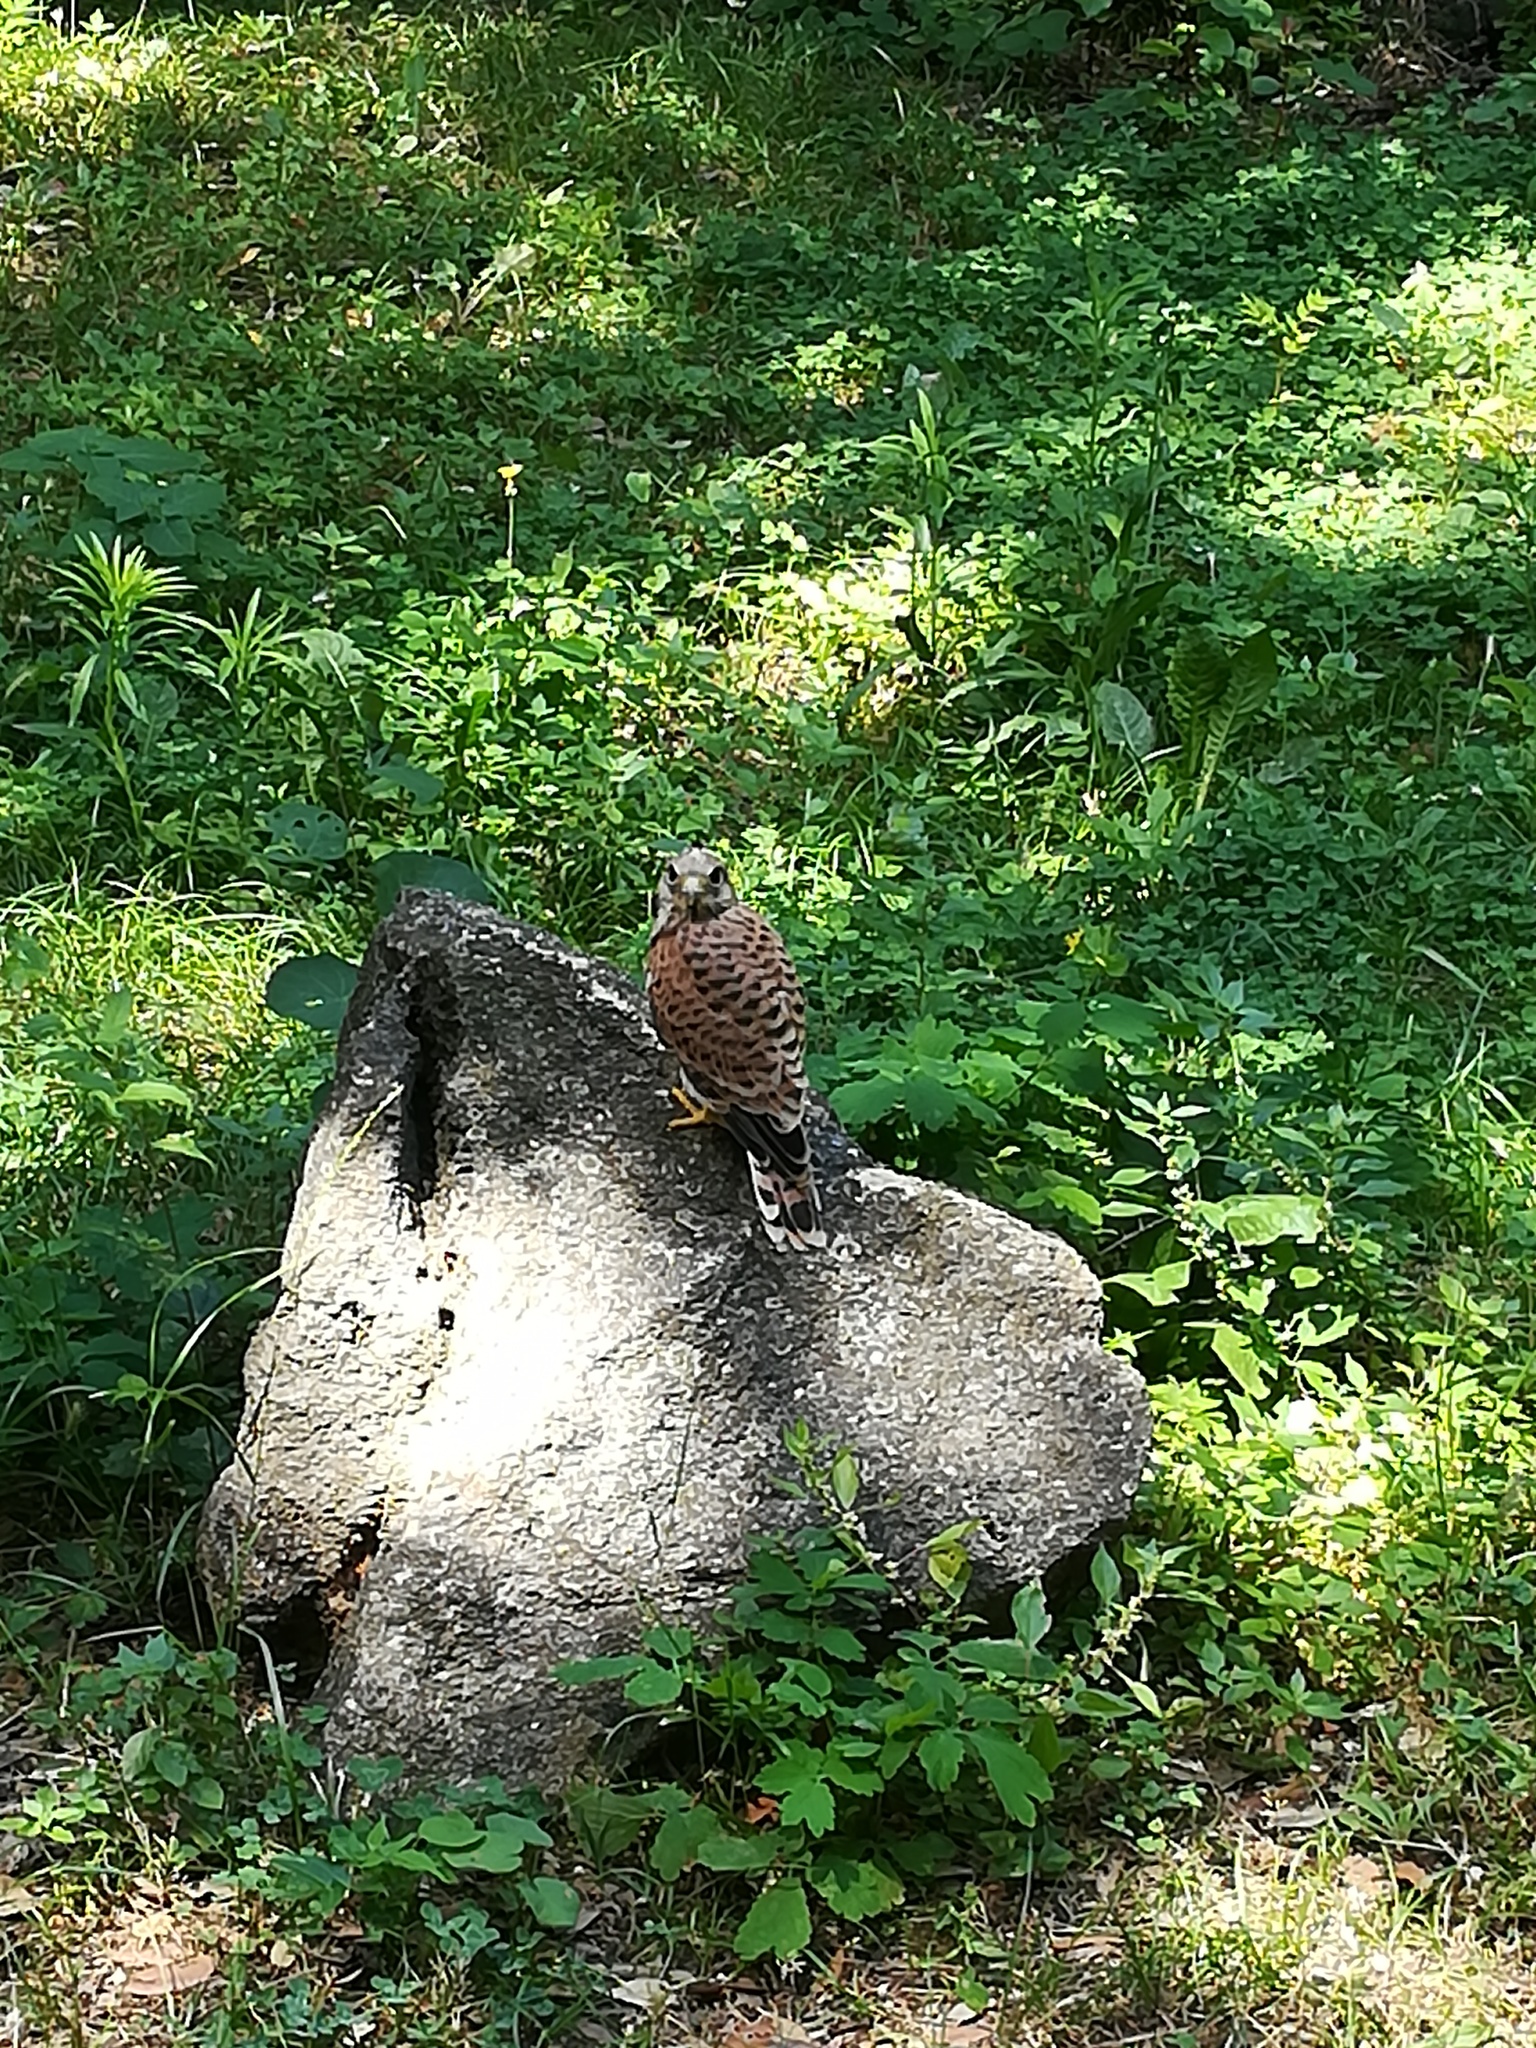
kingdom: Animalia
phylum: Chordata
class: Aves
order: Falconiformes
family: Falconidae
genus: Falco
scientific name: Falco tinnunculus
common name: Common kestrel
